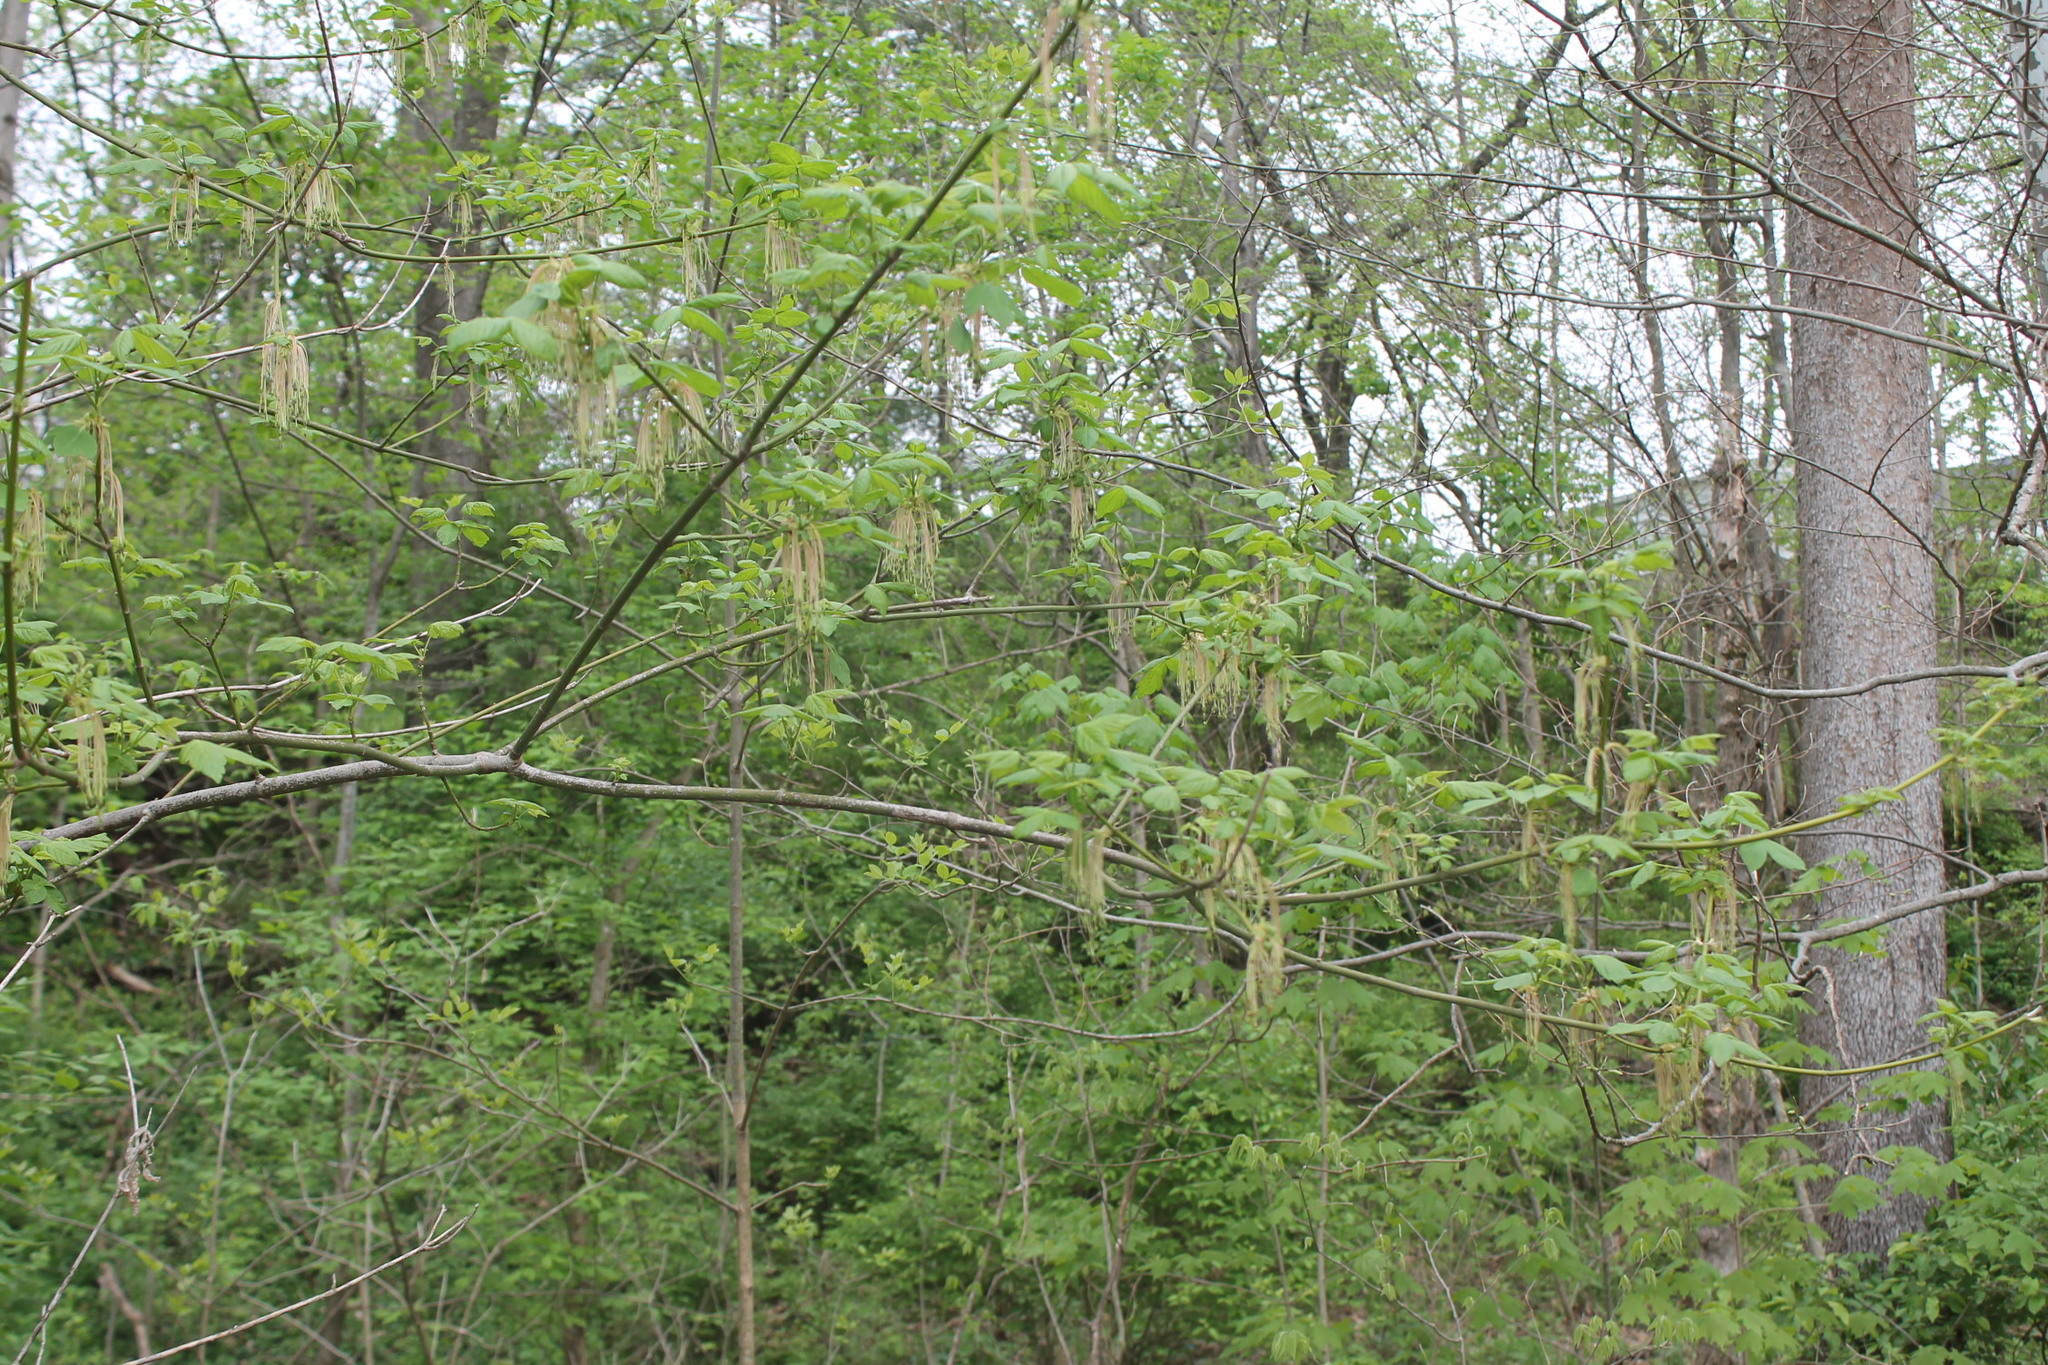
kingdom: Plantae
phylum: Tracheophyta
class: Magnoliopsida
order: Sapindales
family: Sapindaceae
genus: Acer
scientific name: Acer negundo
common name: Ashleaf maple
